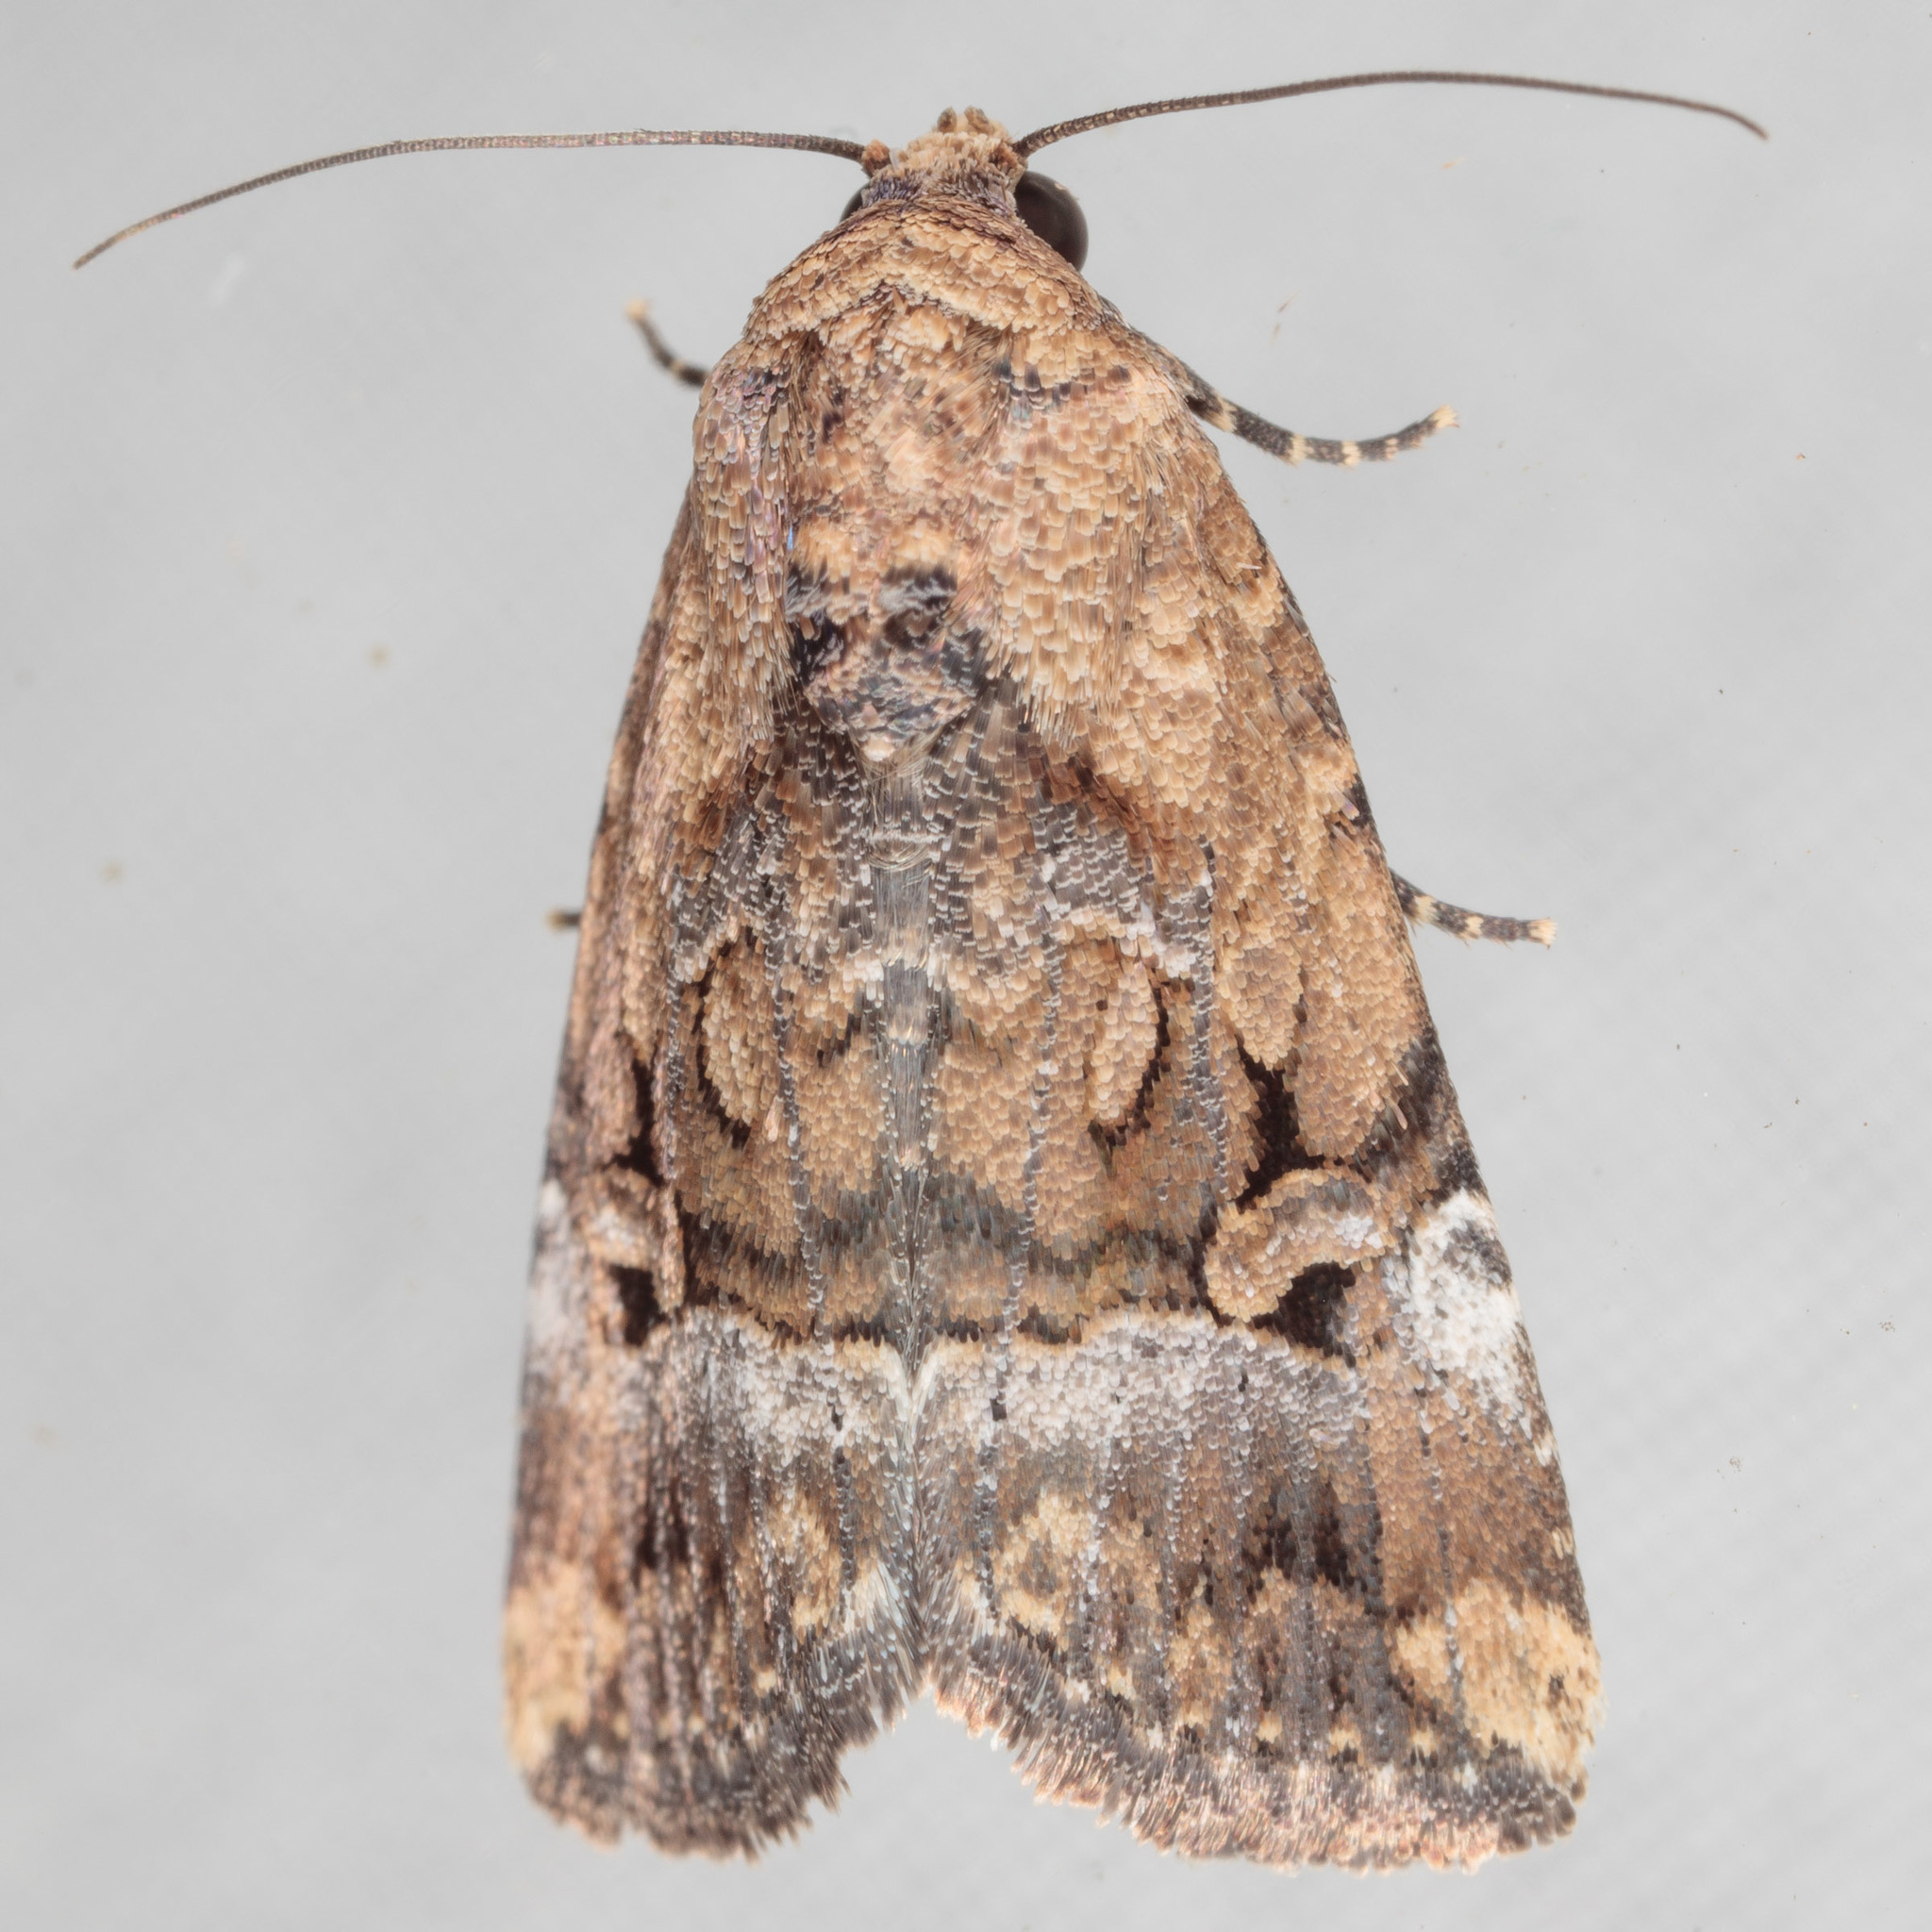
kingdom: Animalia
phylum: Arthropoda
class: Insecta
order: Lepidoptera
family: Noctuidae
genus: Elaphria
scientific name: Elaphria chalcedonia
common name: Chalcedony midget
